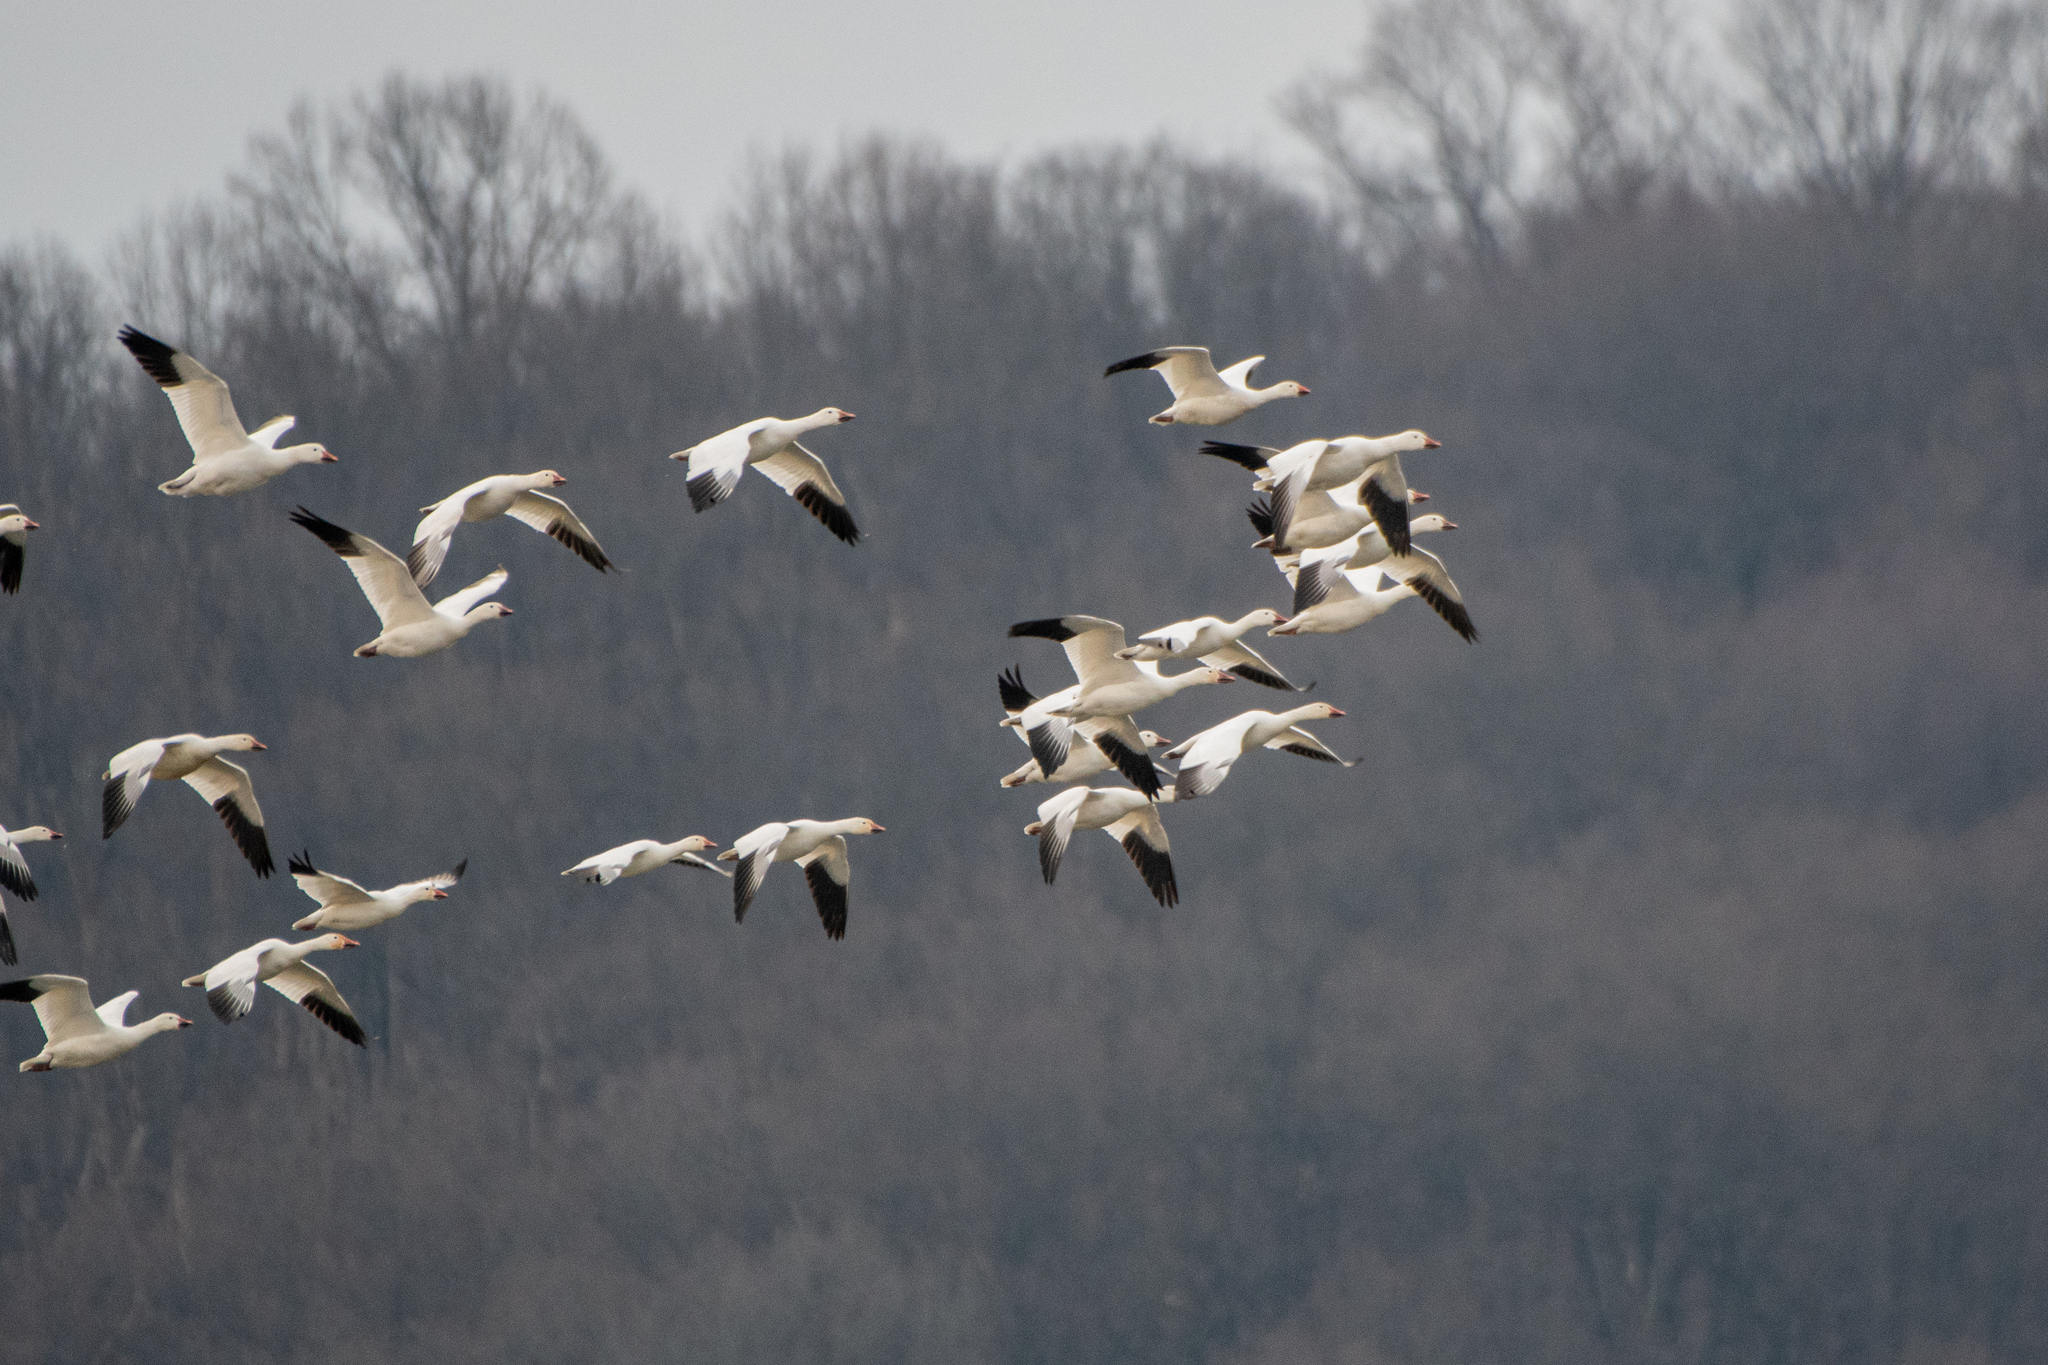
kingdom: Animalia
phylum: Chordata
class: Aves
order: Anseriformes
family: Anatidae
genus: Anser
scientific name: Anser caerulescens
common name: Snow goose
